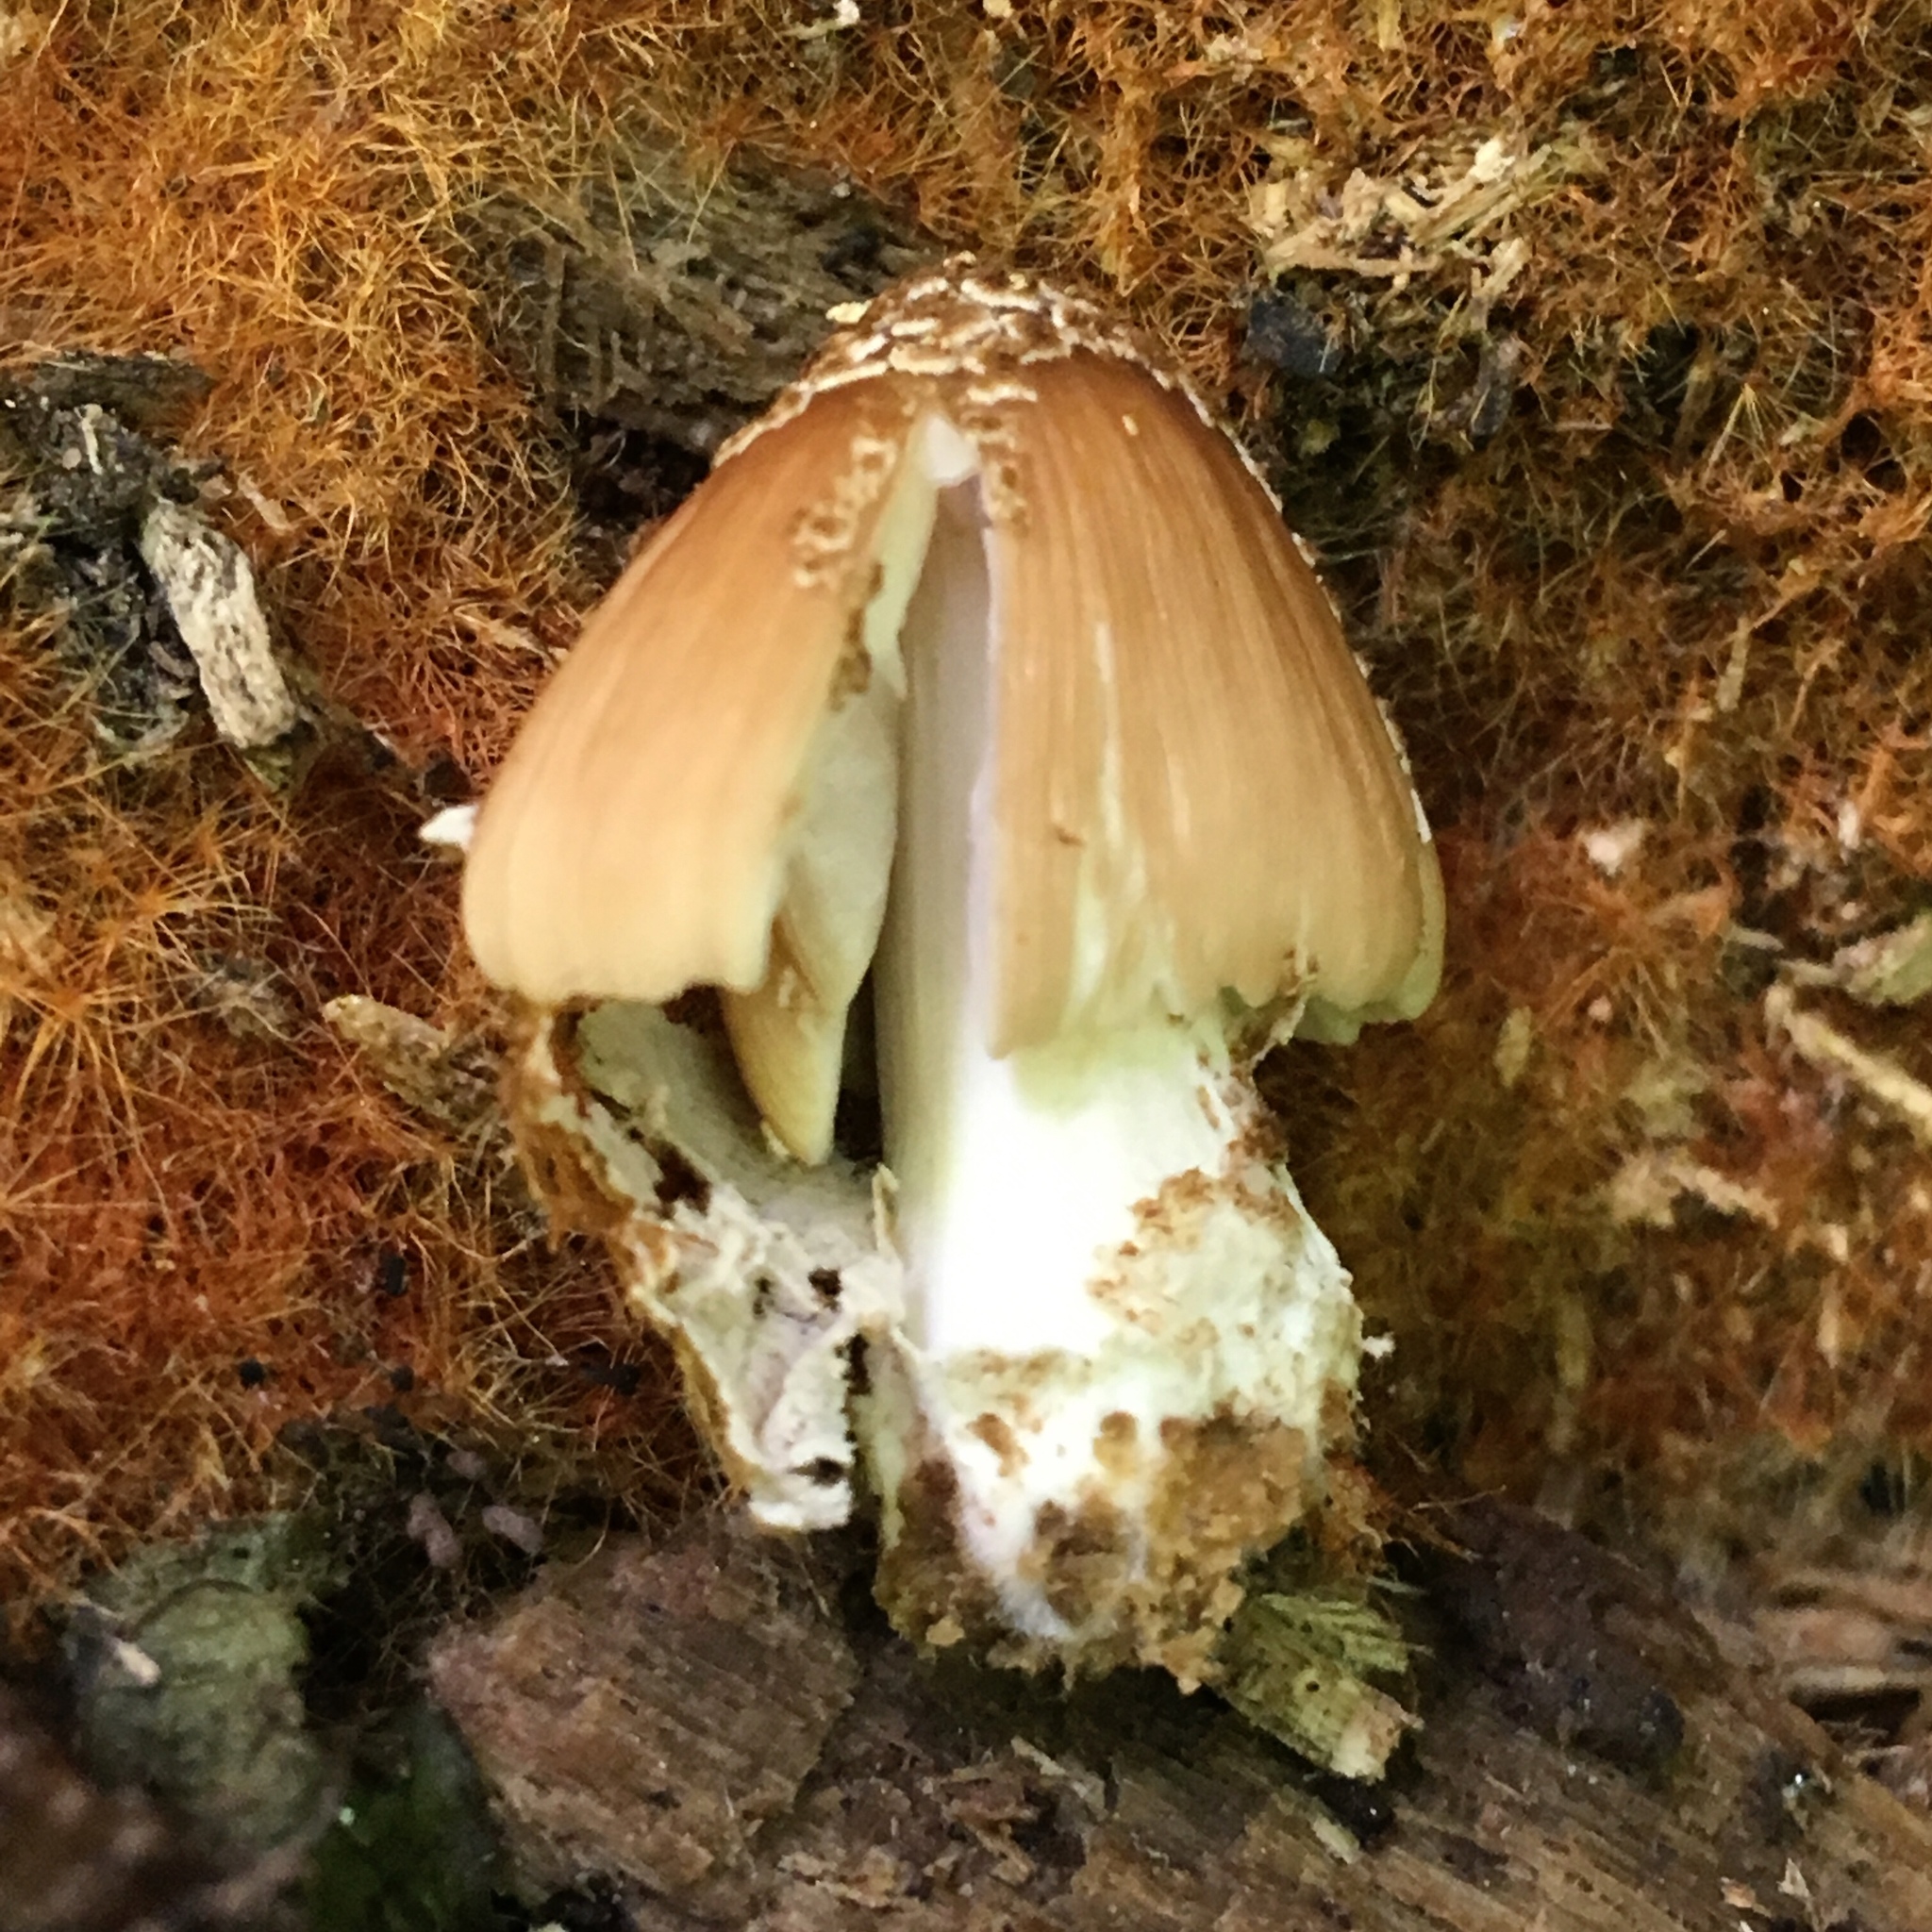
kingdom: Fungi
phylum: Basidiomycota
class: Agaricomycetes
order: Agaricales
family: Psathyrellaceae
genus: Coprinellus
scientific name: Coprinellus domesticus
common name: Firerug inkcap
